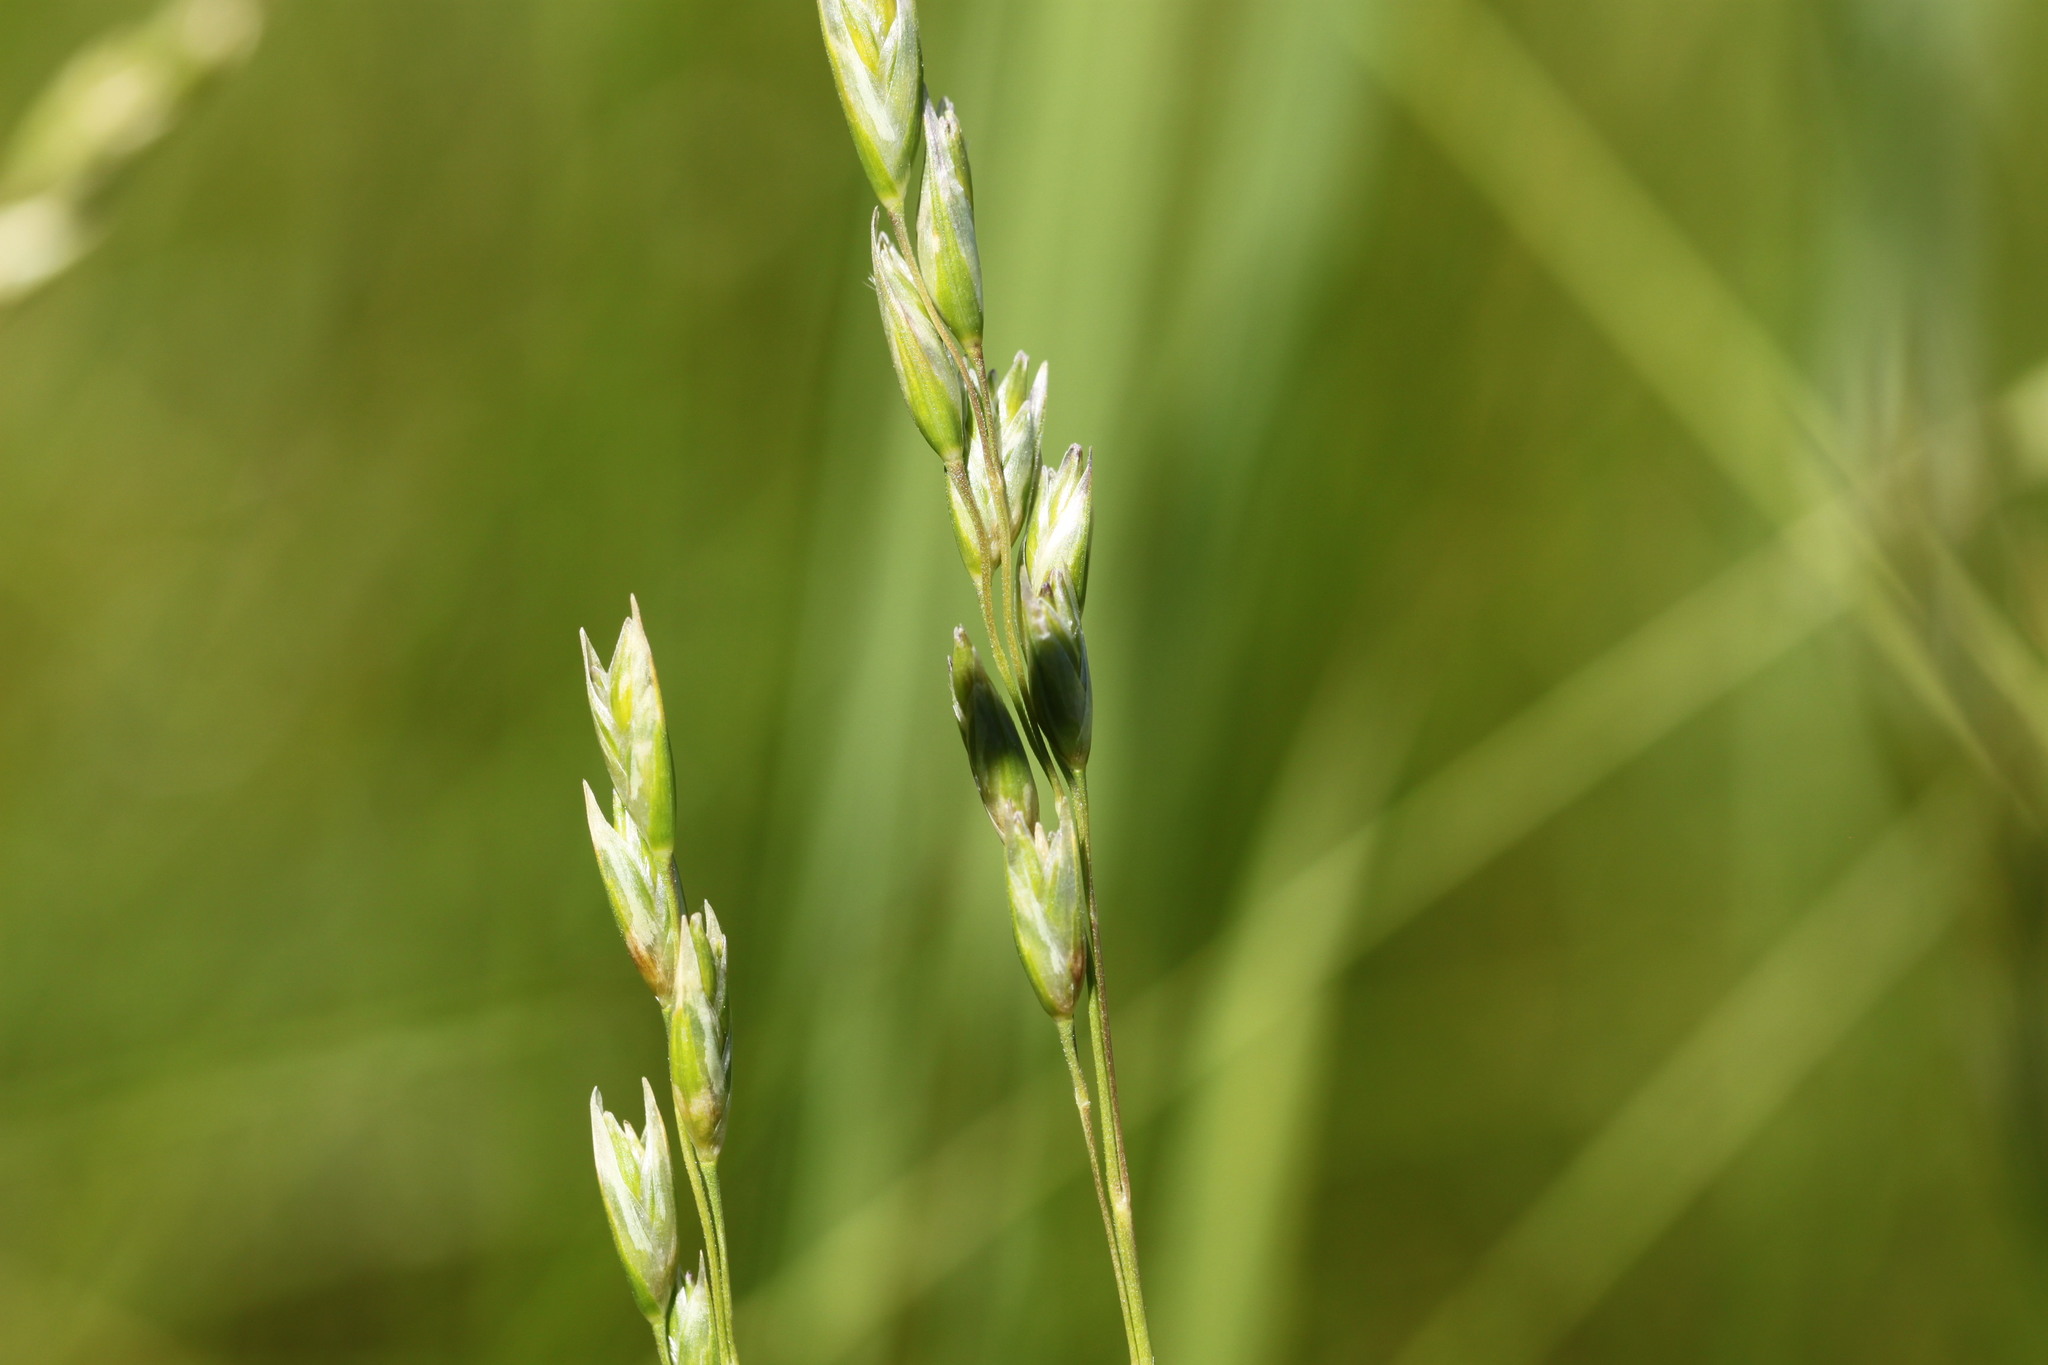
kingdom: Plantae
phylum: Tracheophyta
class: Liliopsida
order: Poales
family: Poaceae
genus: Danthonia
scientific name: Danthonia decumbens
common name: Common heathgrass
